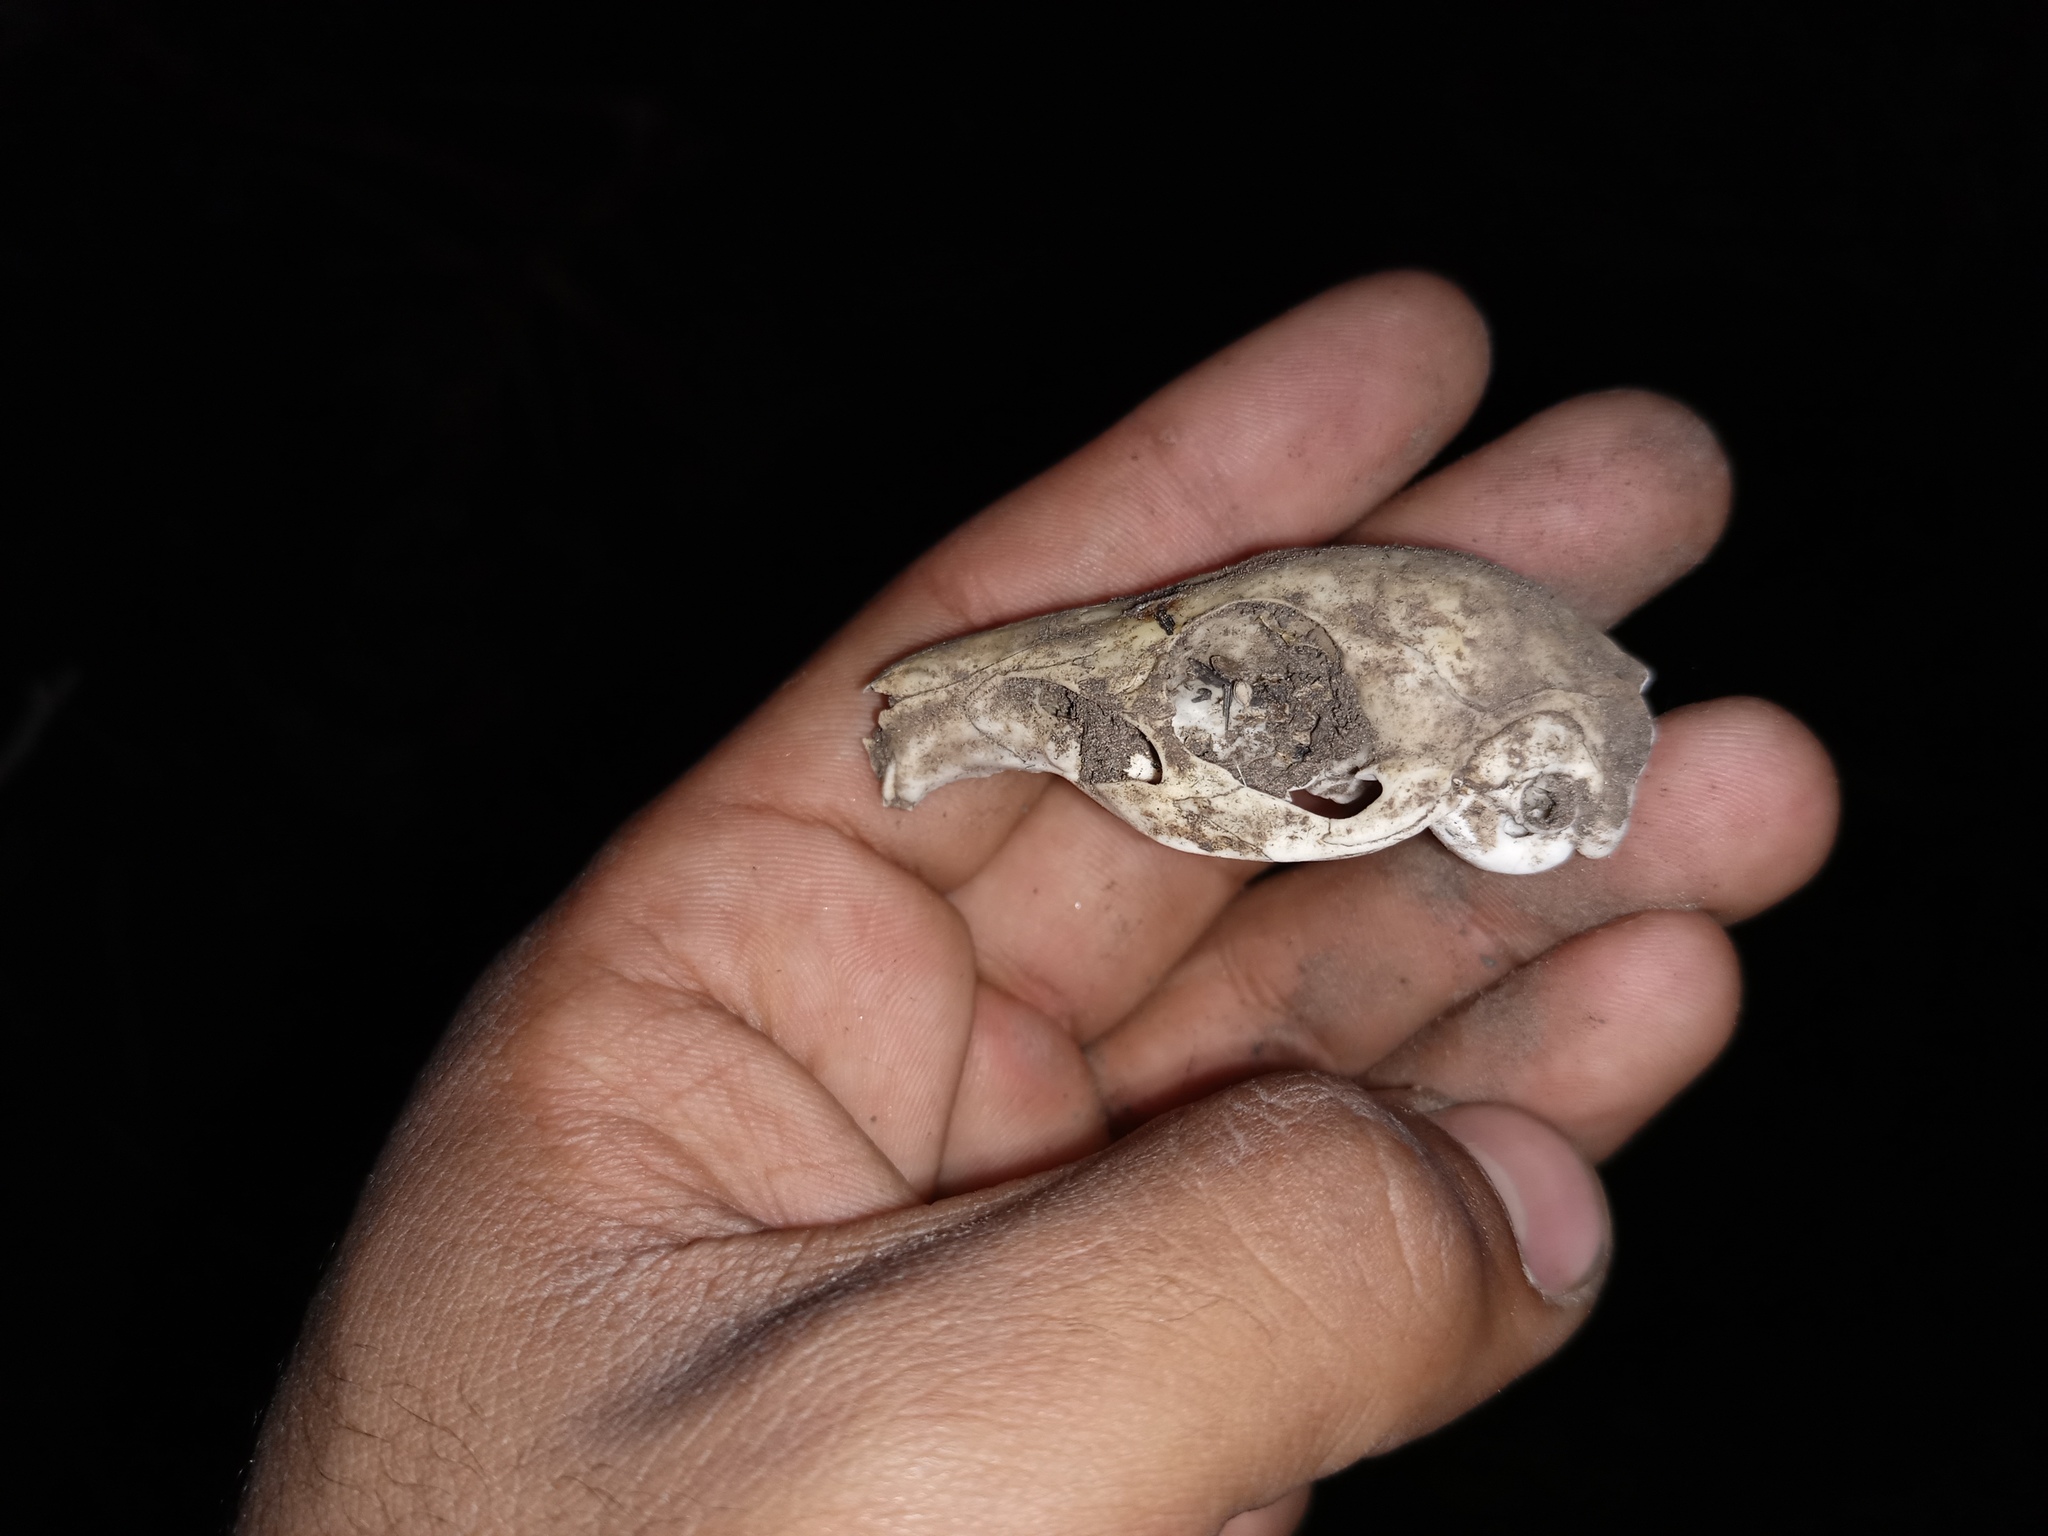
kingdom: Animalia
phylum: Chordata
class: Mammalia
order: Rodentia
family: Caviidae
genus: Cavia
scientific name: Cavia aperea
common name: Brazilian guinea pig
